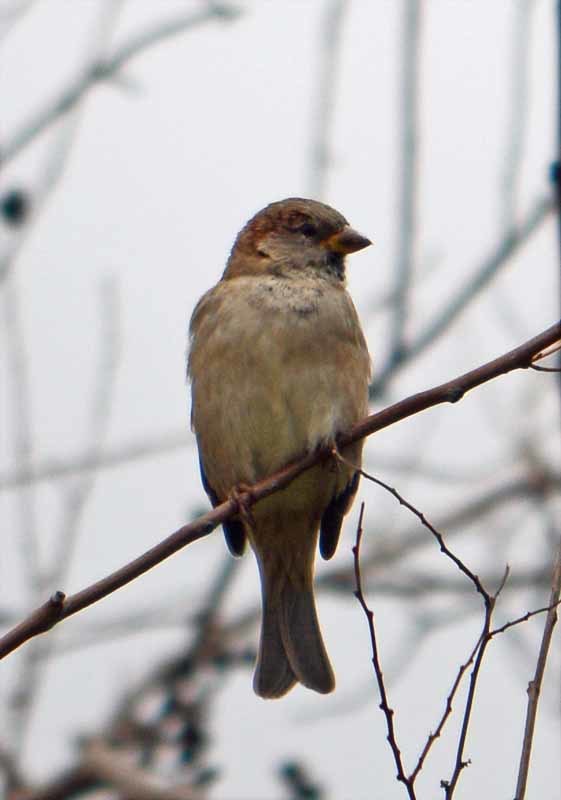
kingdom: Animalia
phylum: Chordata
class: Aves
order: Passeriformes
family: Passeridae
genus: Passer
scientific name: Passer domesticus
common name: House sparrow
